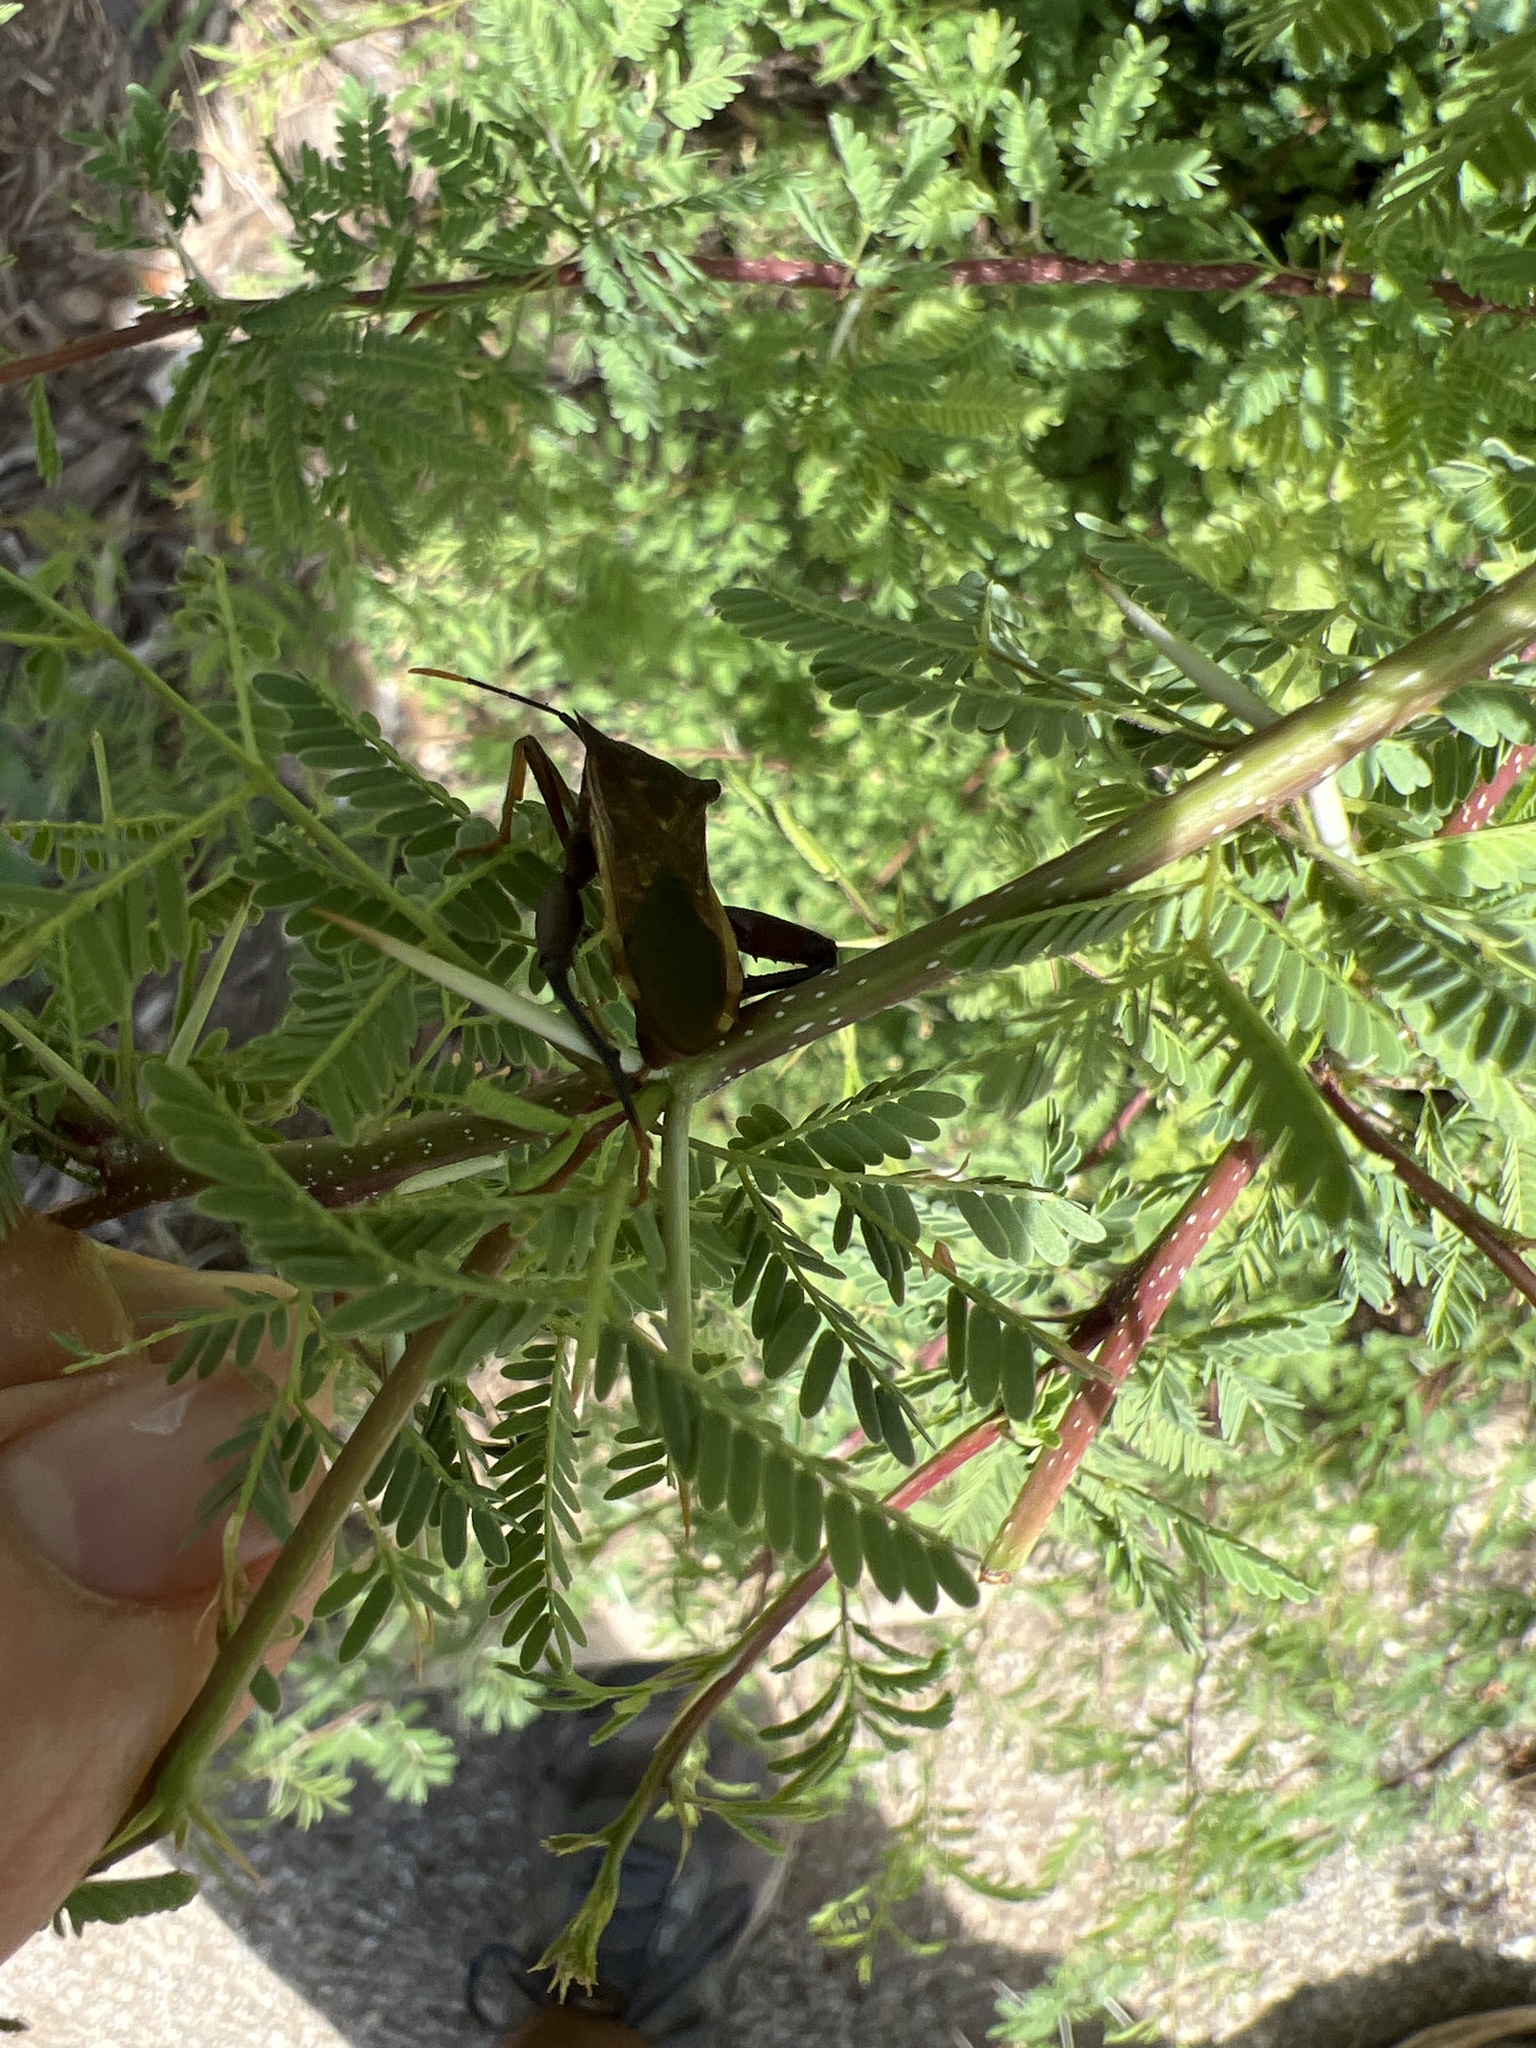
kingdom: Animalia
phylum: Arthropoda
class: Insecta
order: Hemiptera
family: Coreidae
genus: Mozena
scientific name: Mozena lunata
